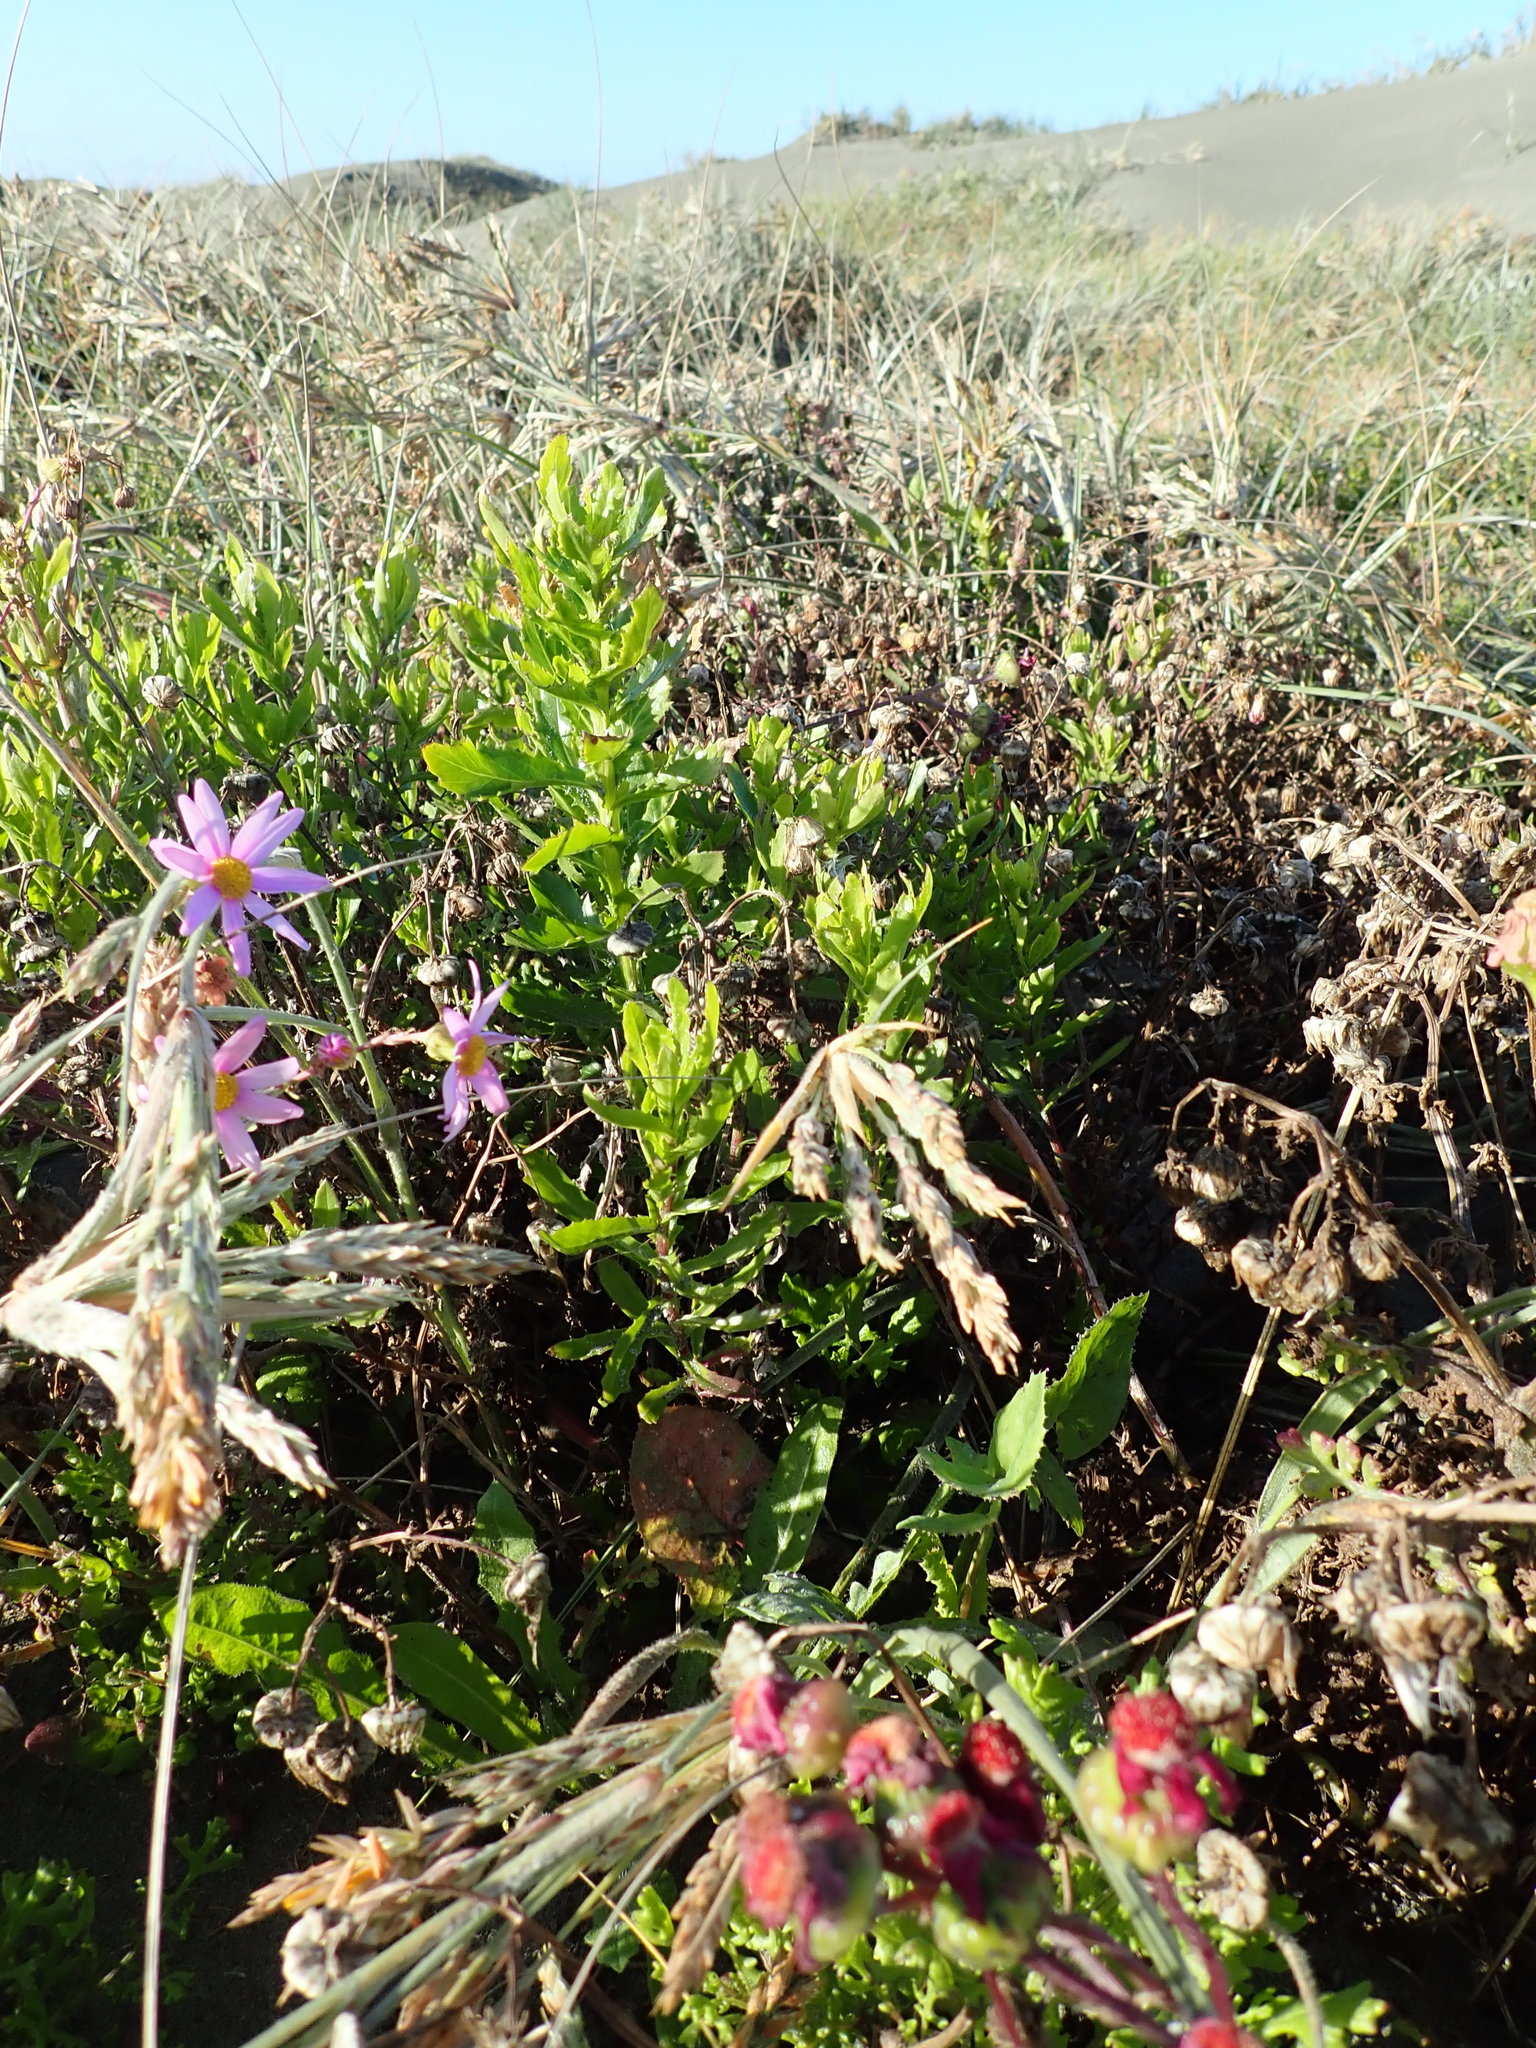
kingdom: Plantae
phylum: Tracheophyta
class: Magnoliopsida
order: Asterales
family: Asteraceae
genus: Senecio
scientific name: Senecio glastifolius
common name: Woad-leaved ragwort
